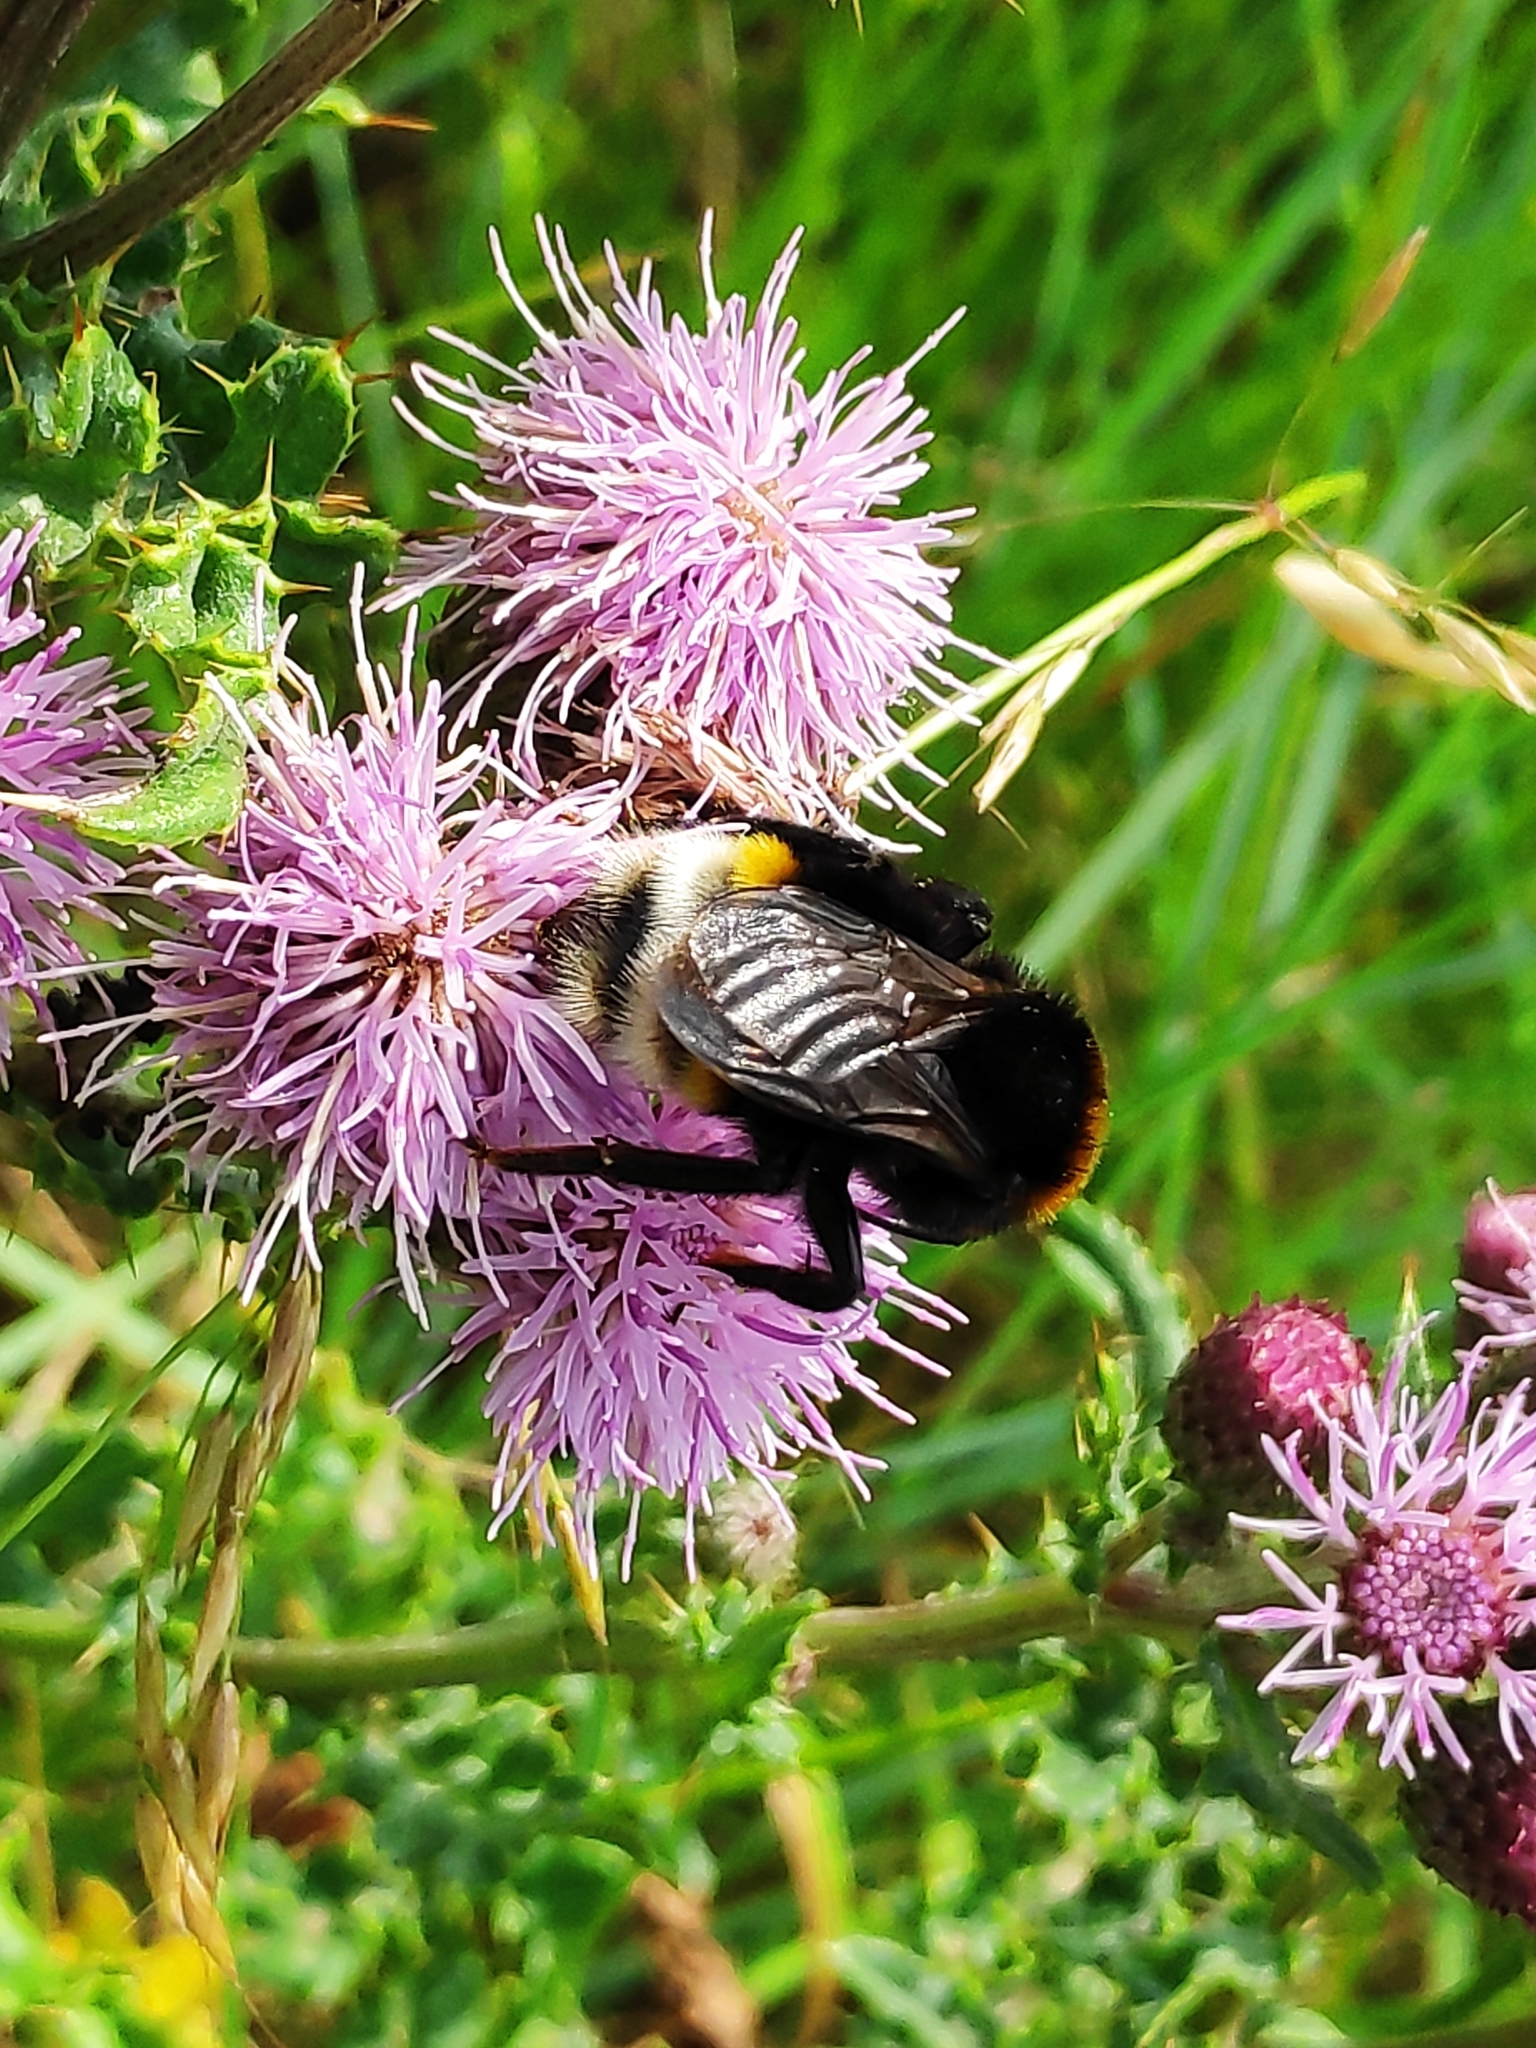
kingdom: Animalia
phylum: Arthropoda
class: Insecta
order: Hymenoptera
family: Apidae
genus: Bombus
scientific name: Bombus vestalis
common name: Vestal cuckoo bee
